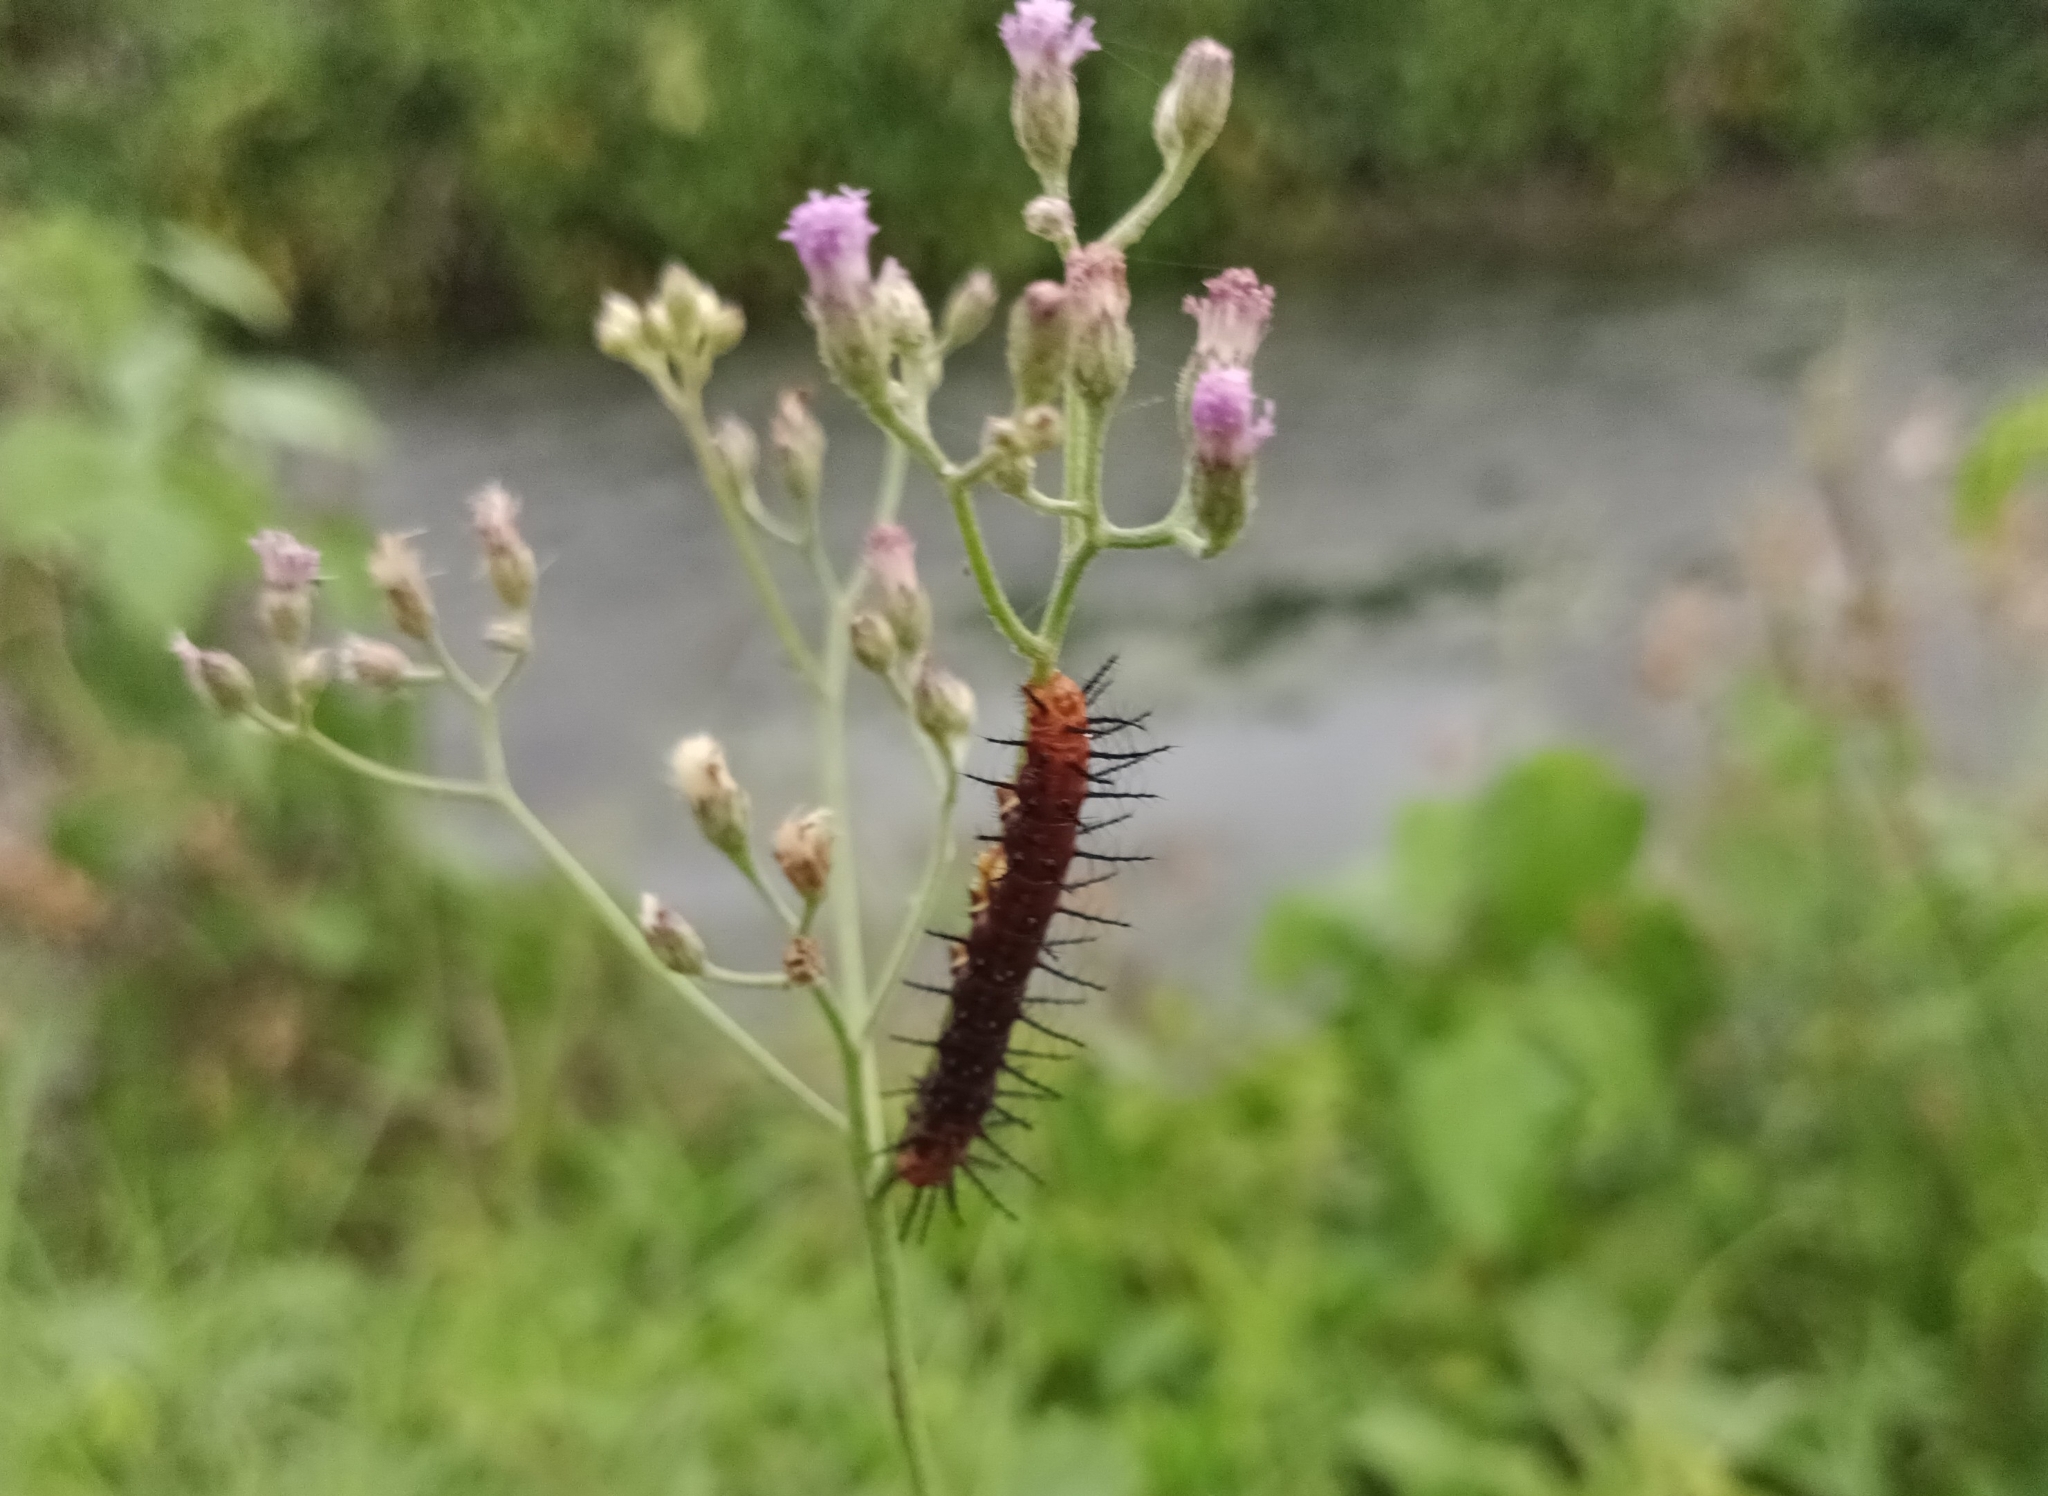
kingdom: Animalia
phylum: Arthropoda
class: Insecta
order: Lepidoptera
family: Nymphalidae
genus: Acraea
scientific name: Acraea terpsicore
